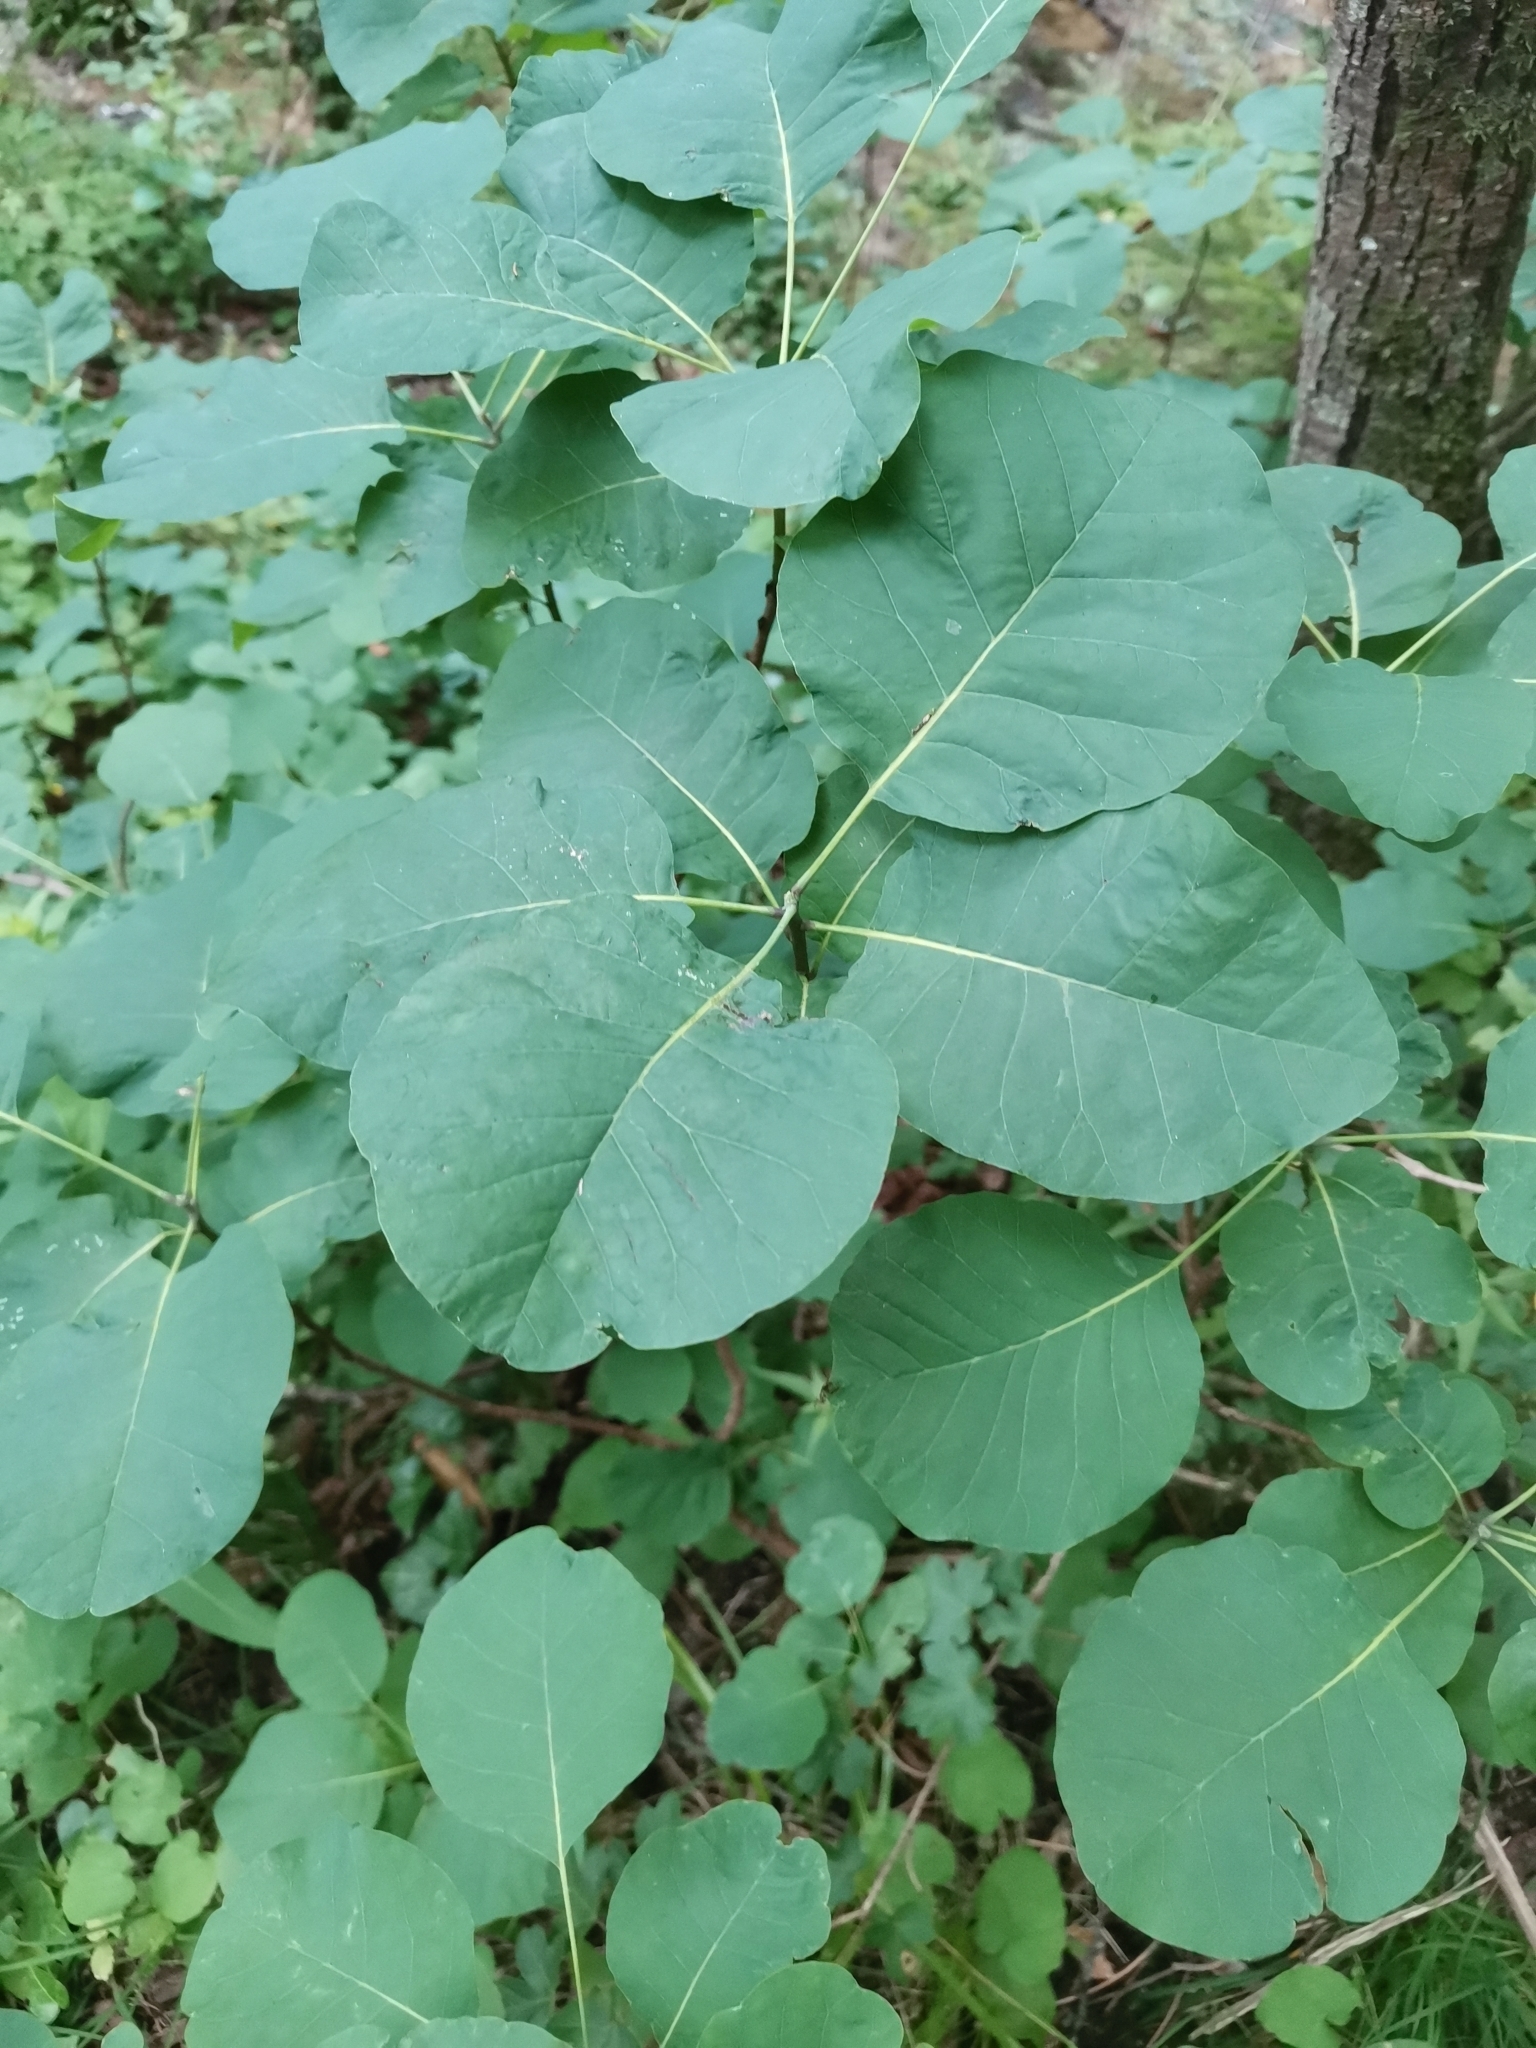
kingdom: Plantae
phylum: Tracheophyta
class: Magnoliopsida
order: Sapindales
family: Anacardiaceae
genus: Cotinus
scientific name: Cotinus coggygria
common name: Smoke-tree
